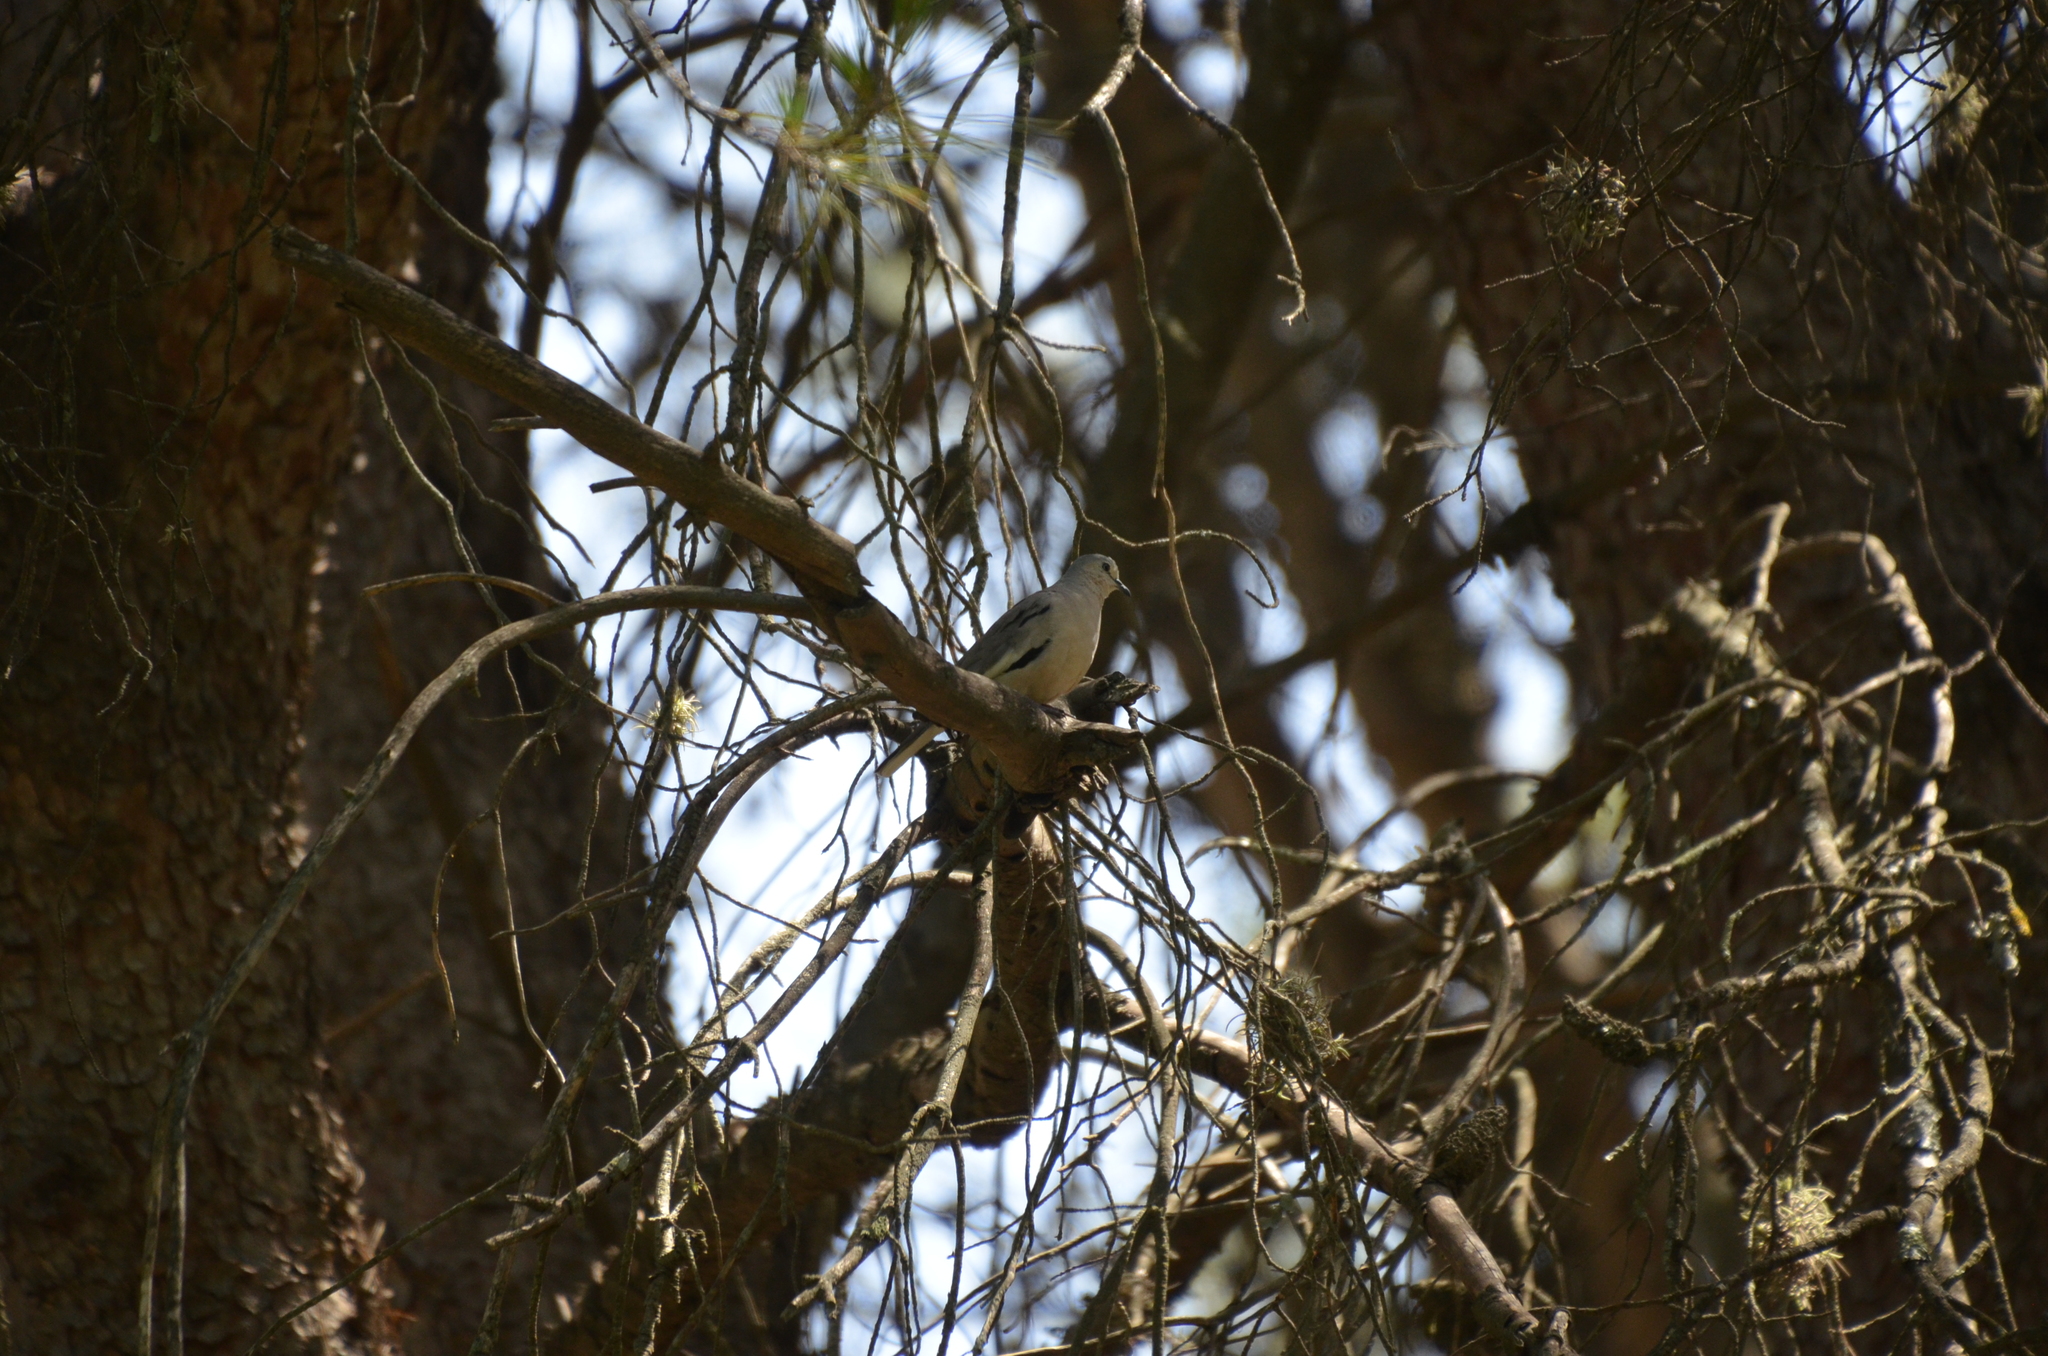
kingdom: Animalia
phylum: Chordata
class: Aves
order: Columbiformes
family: Columbidae
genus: Columbina
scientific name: Columbina picui
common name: Picui ground dove
